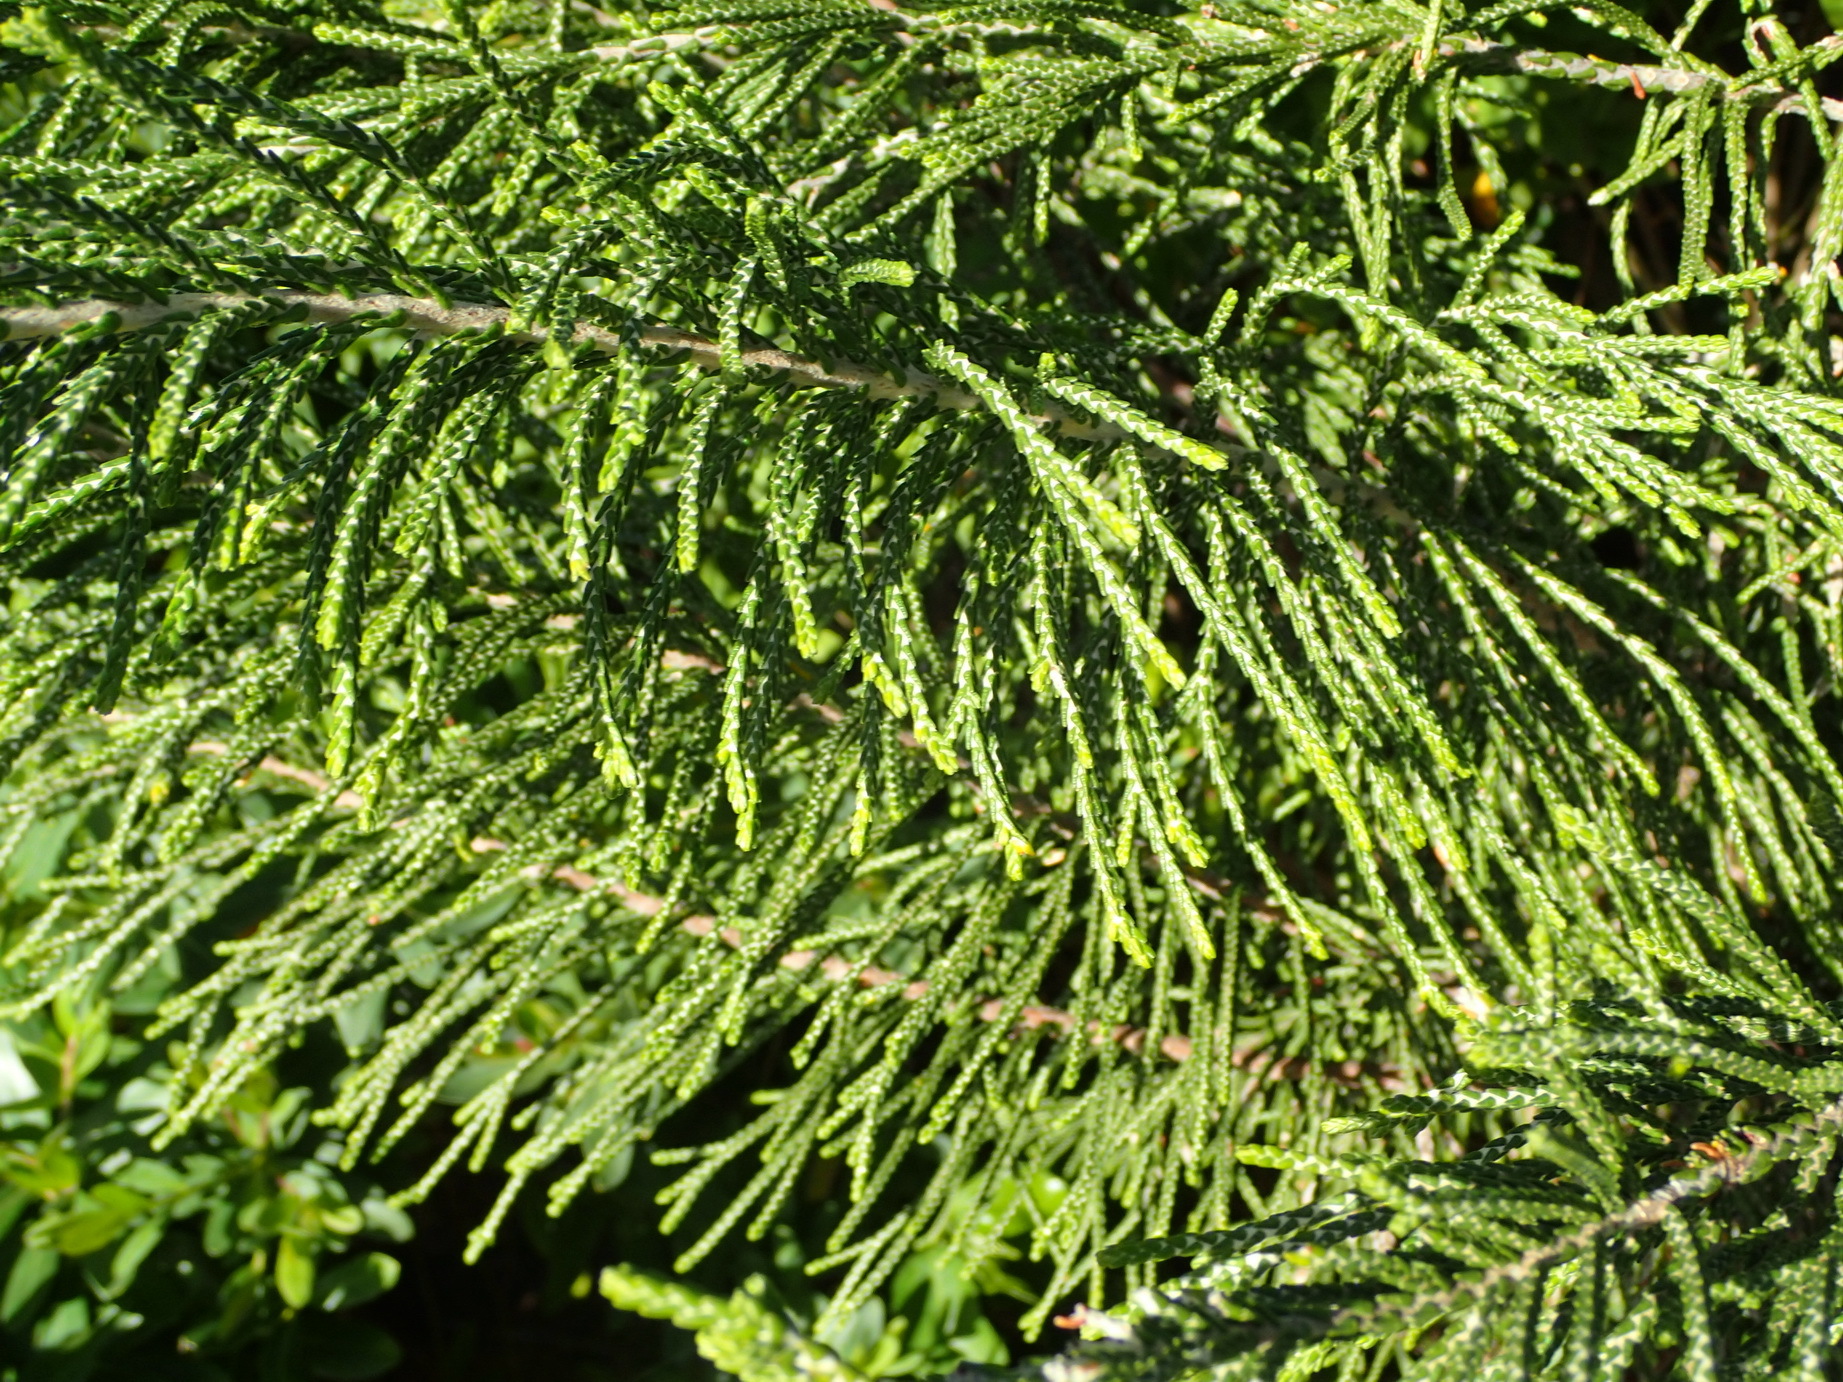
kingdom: Plantae
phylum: Tracheophyta
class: Magnoliopsida
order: Malvales
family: Thymelaeaceae
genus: Passerina
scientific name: Passerina rigida
